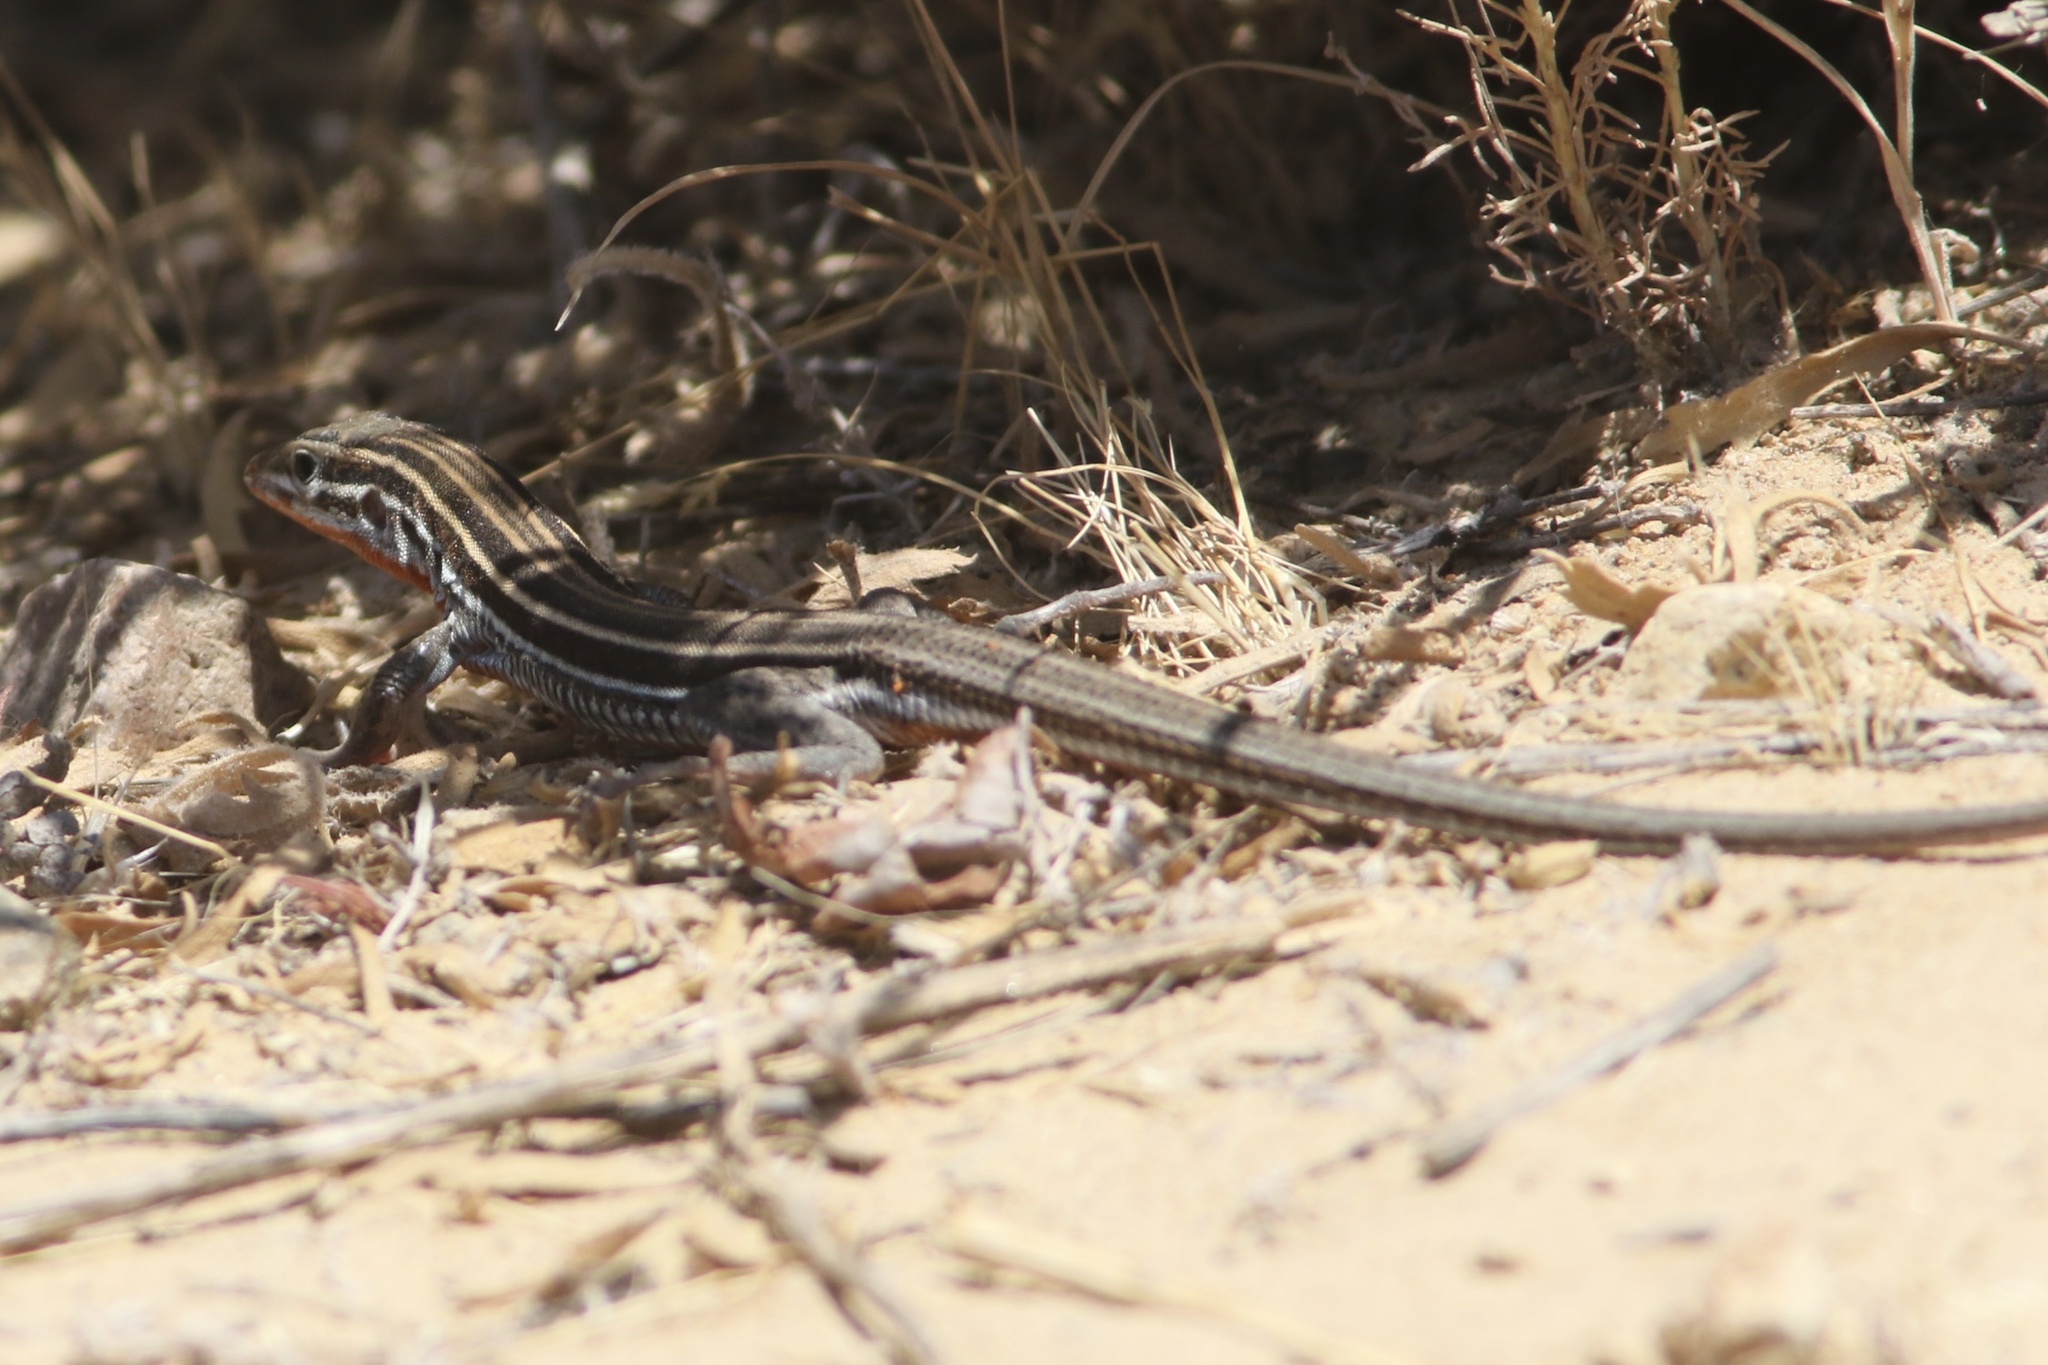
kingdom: Animalia
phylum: Chordata
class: Squamata
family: Teiidae
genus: Aspidoscelis
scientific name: Aspidoscelis hyperythrus
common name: Orange-throated race-runner
